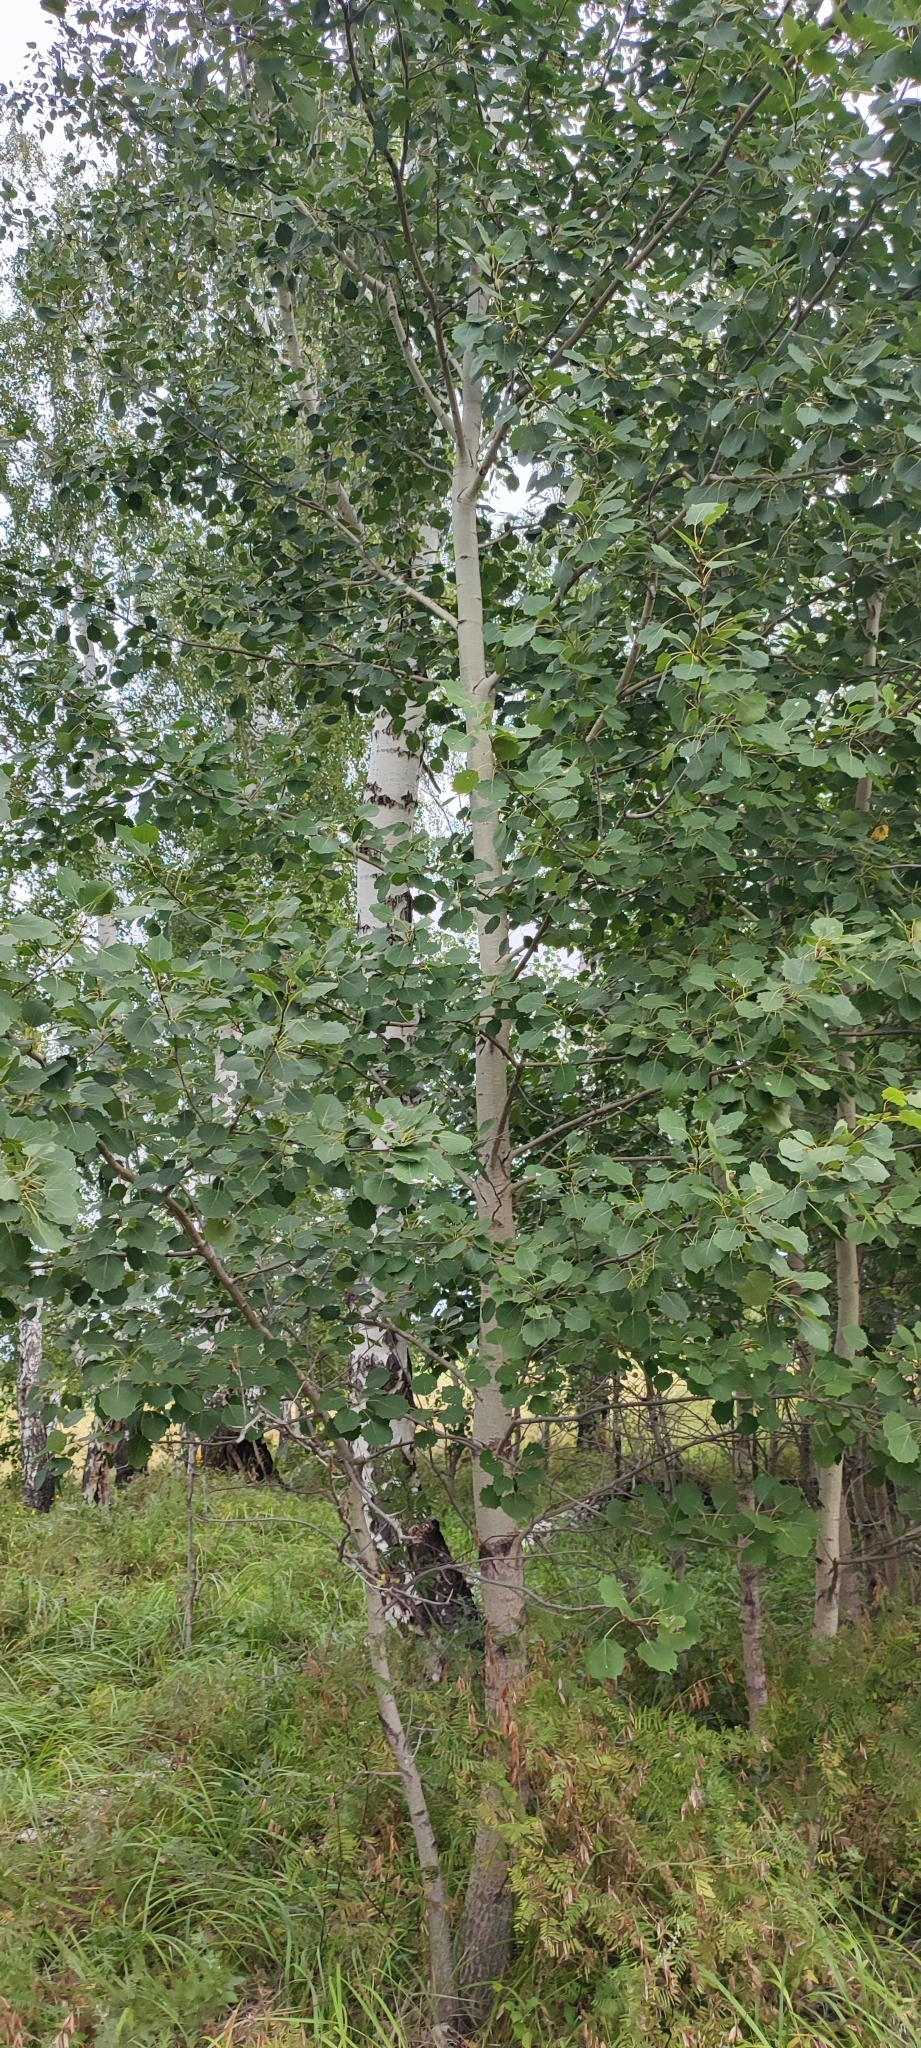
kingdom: Plantae
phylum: Tracheophyta
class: Magnoliopsida
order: Malpighiales
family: Salicaceae
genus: Populus
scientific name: Populus tremula
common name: European aspen
